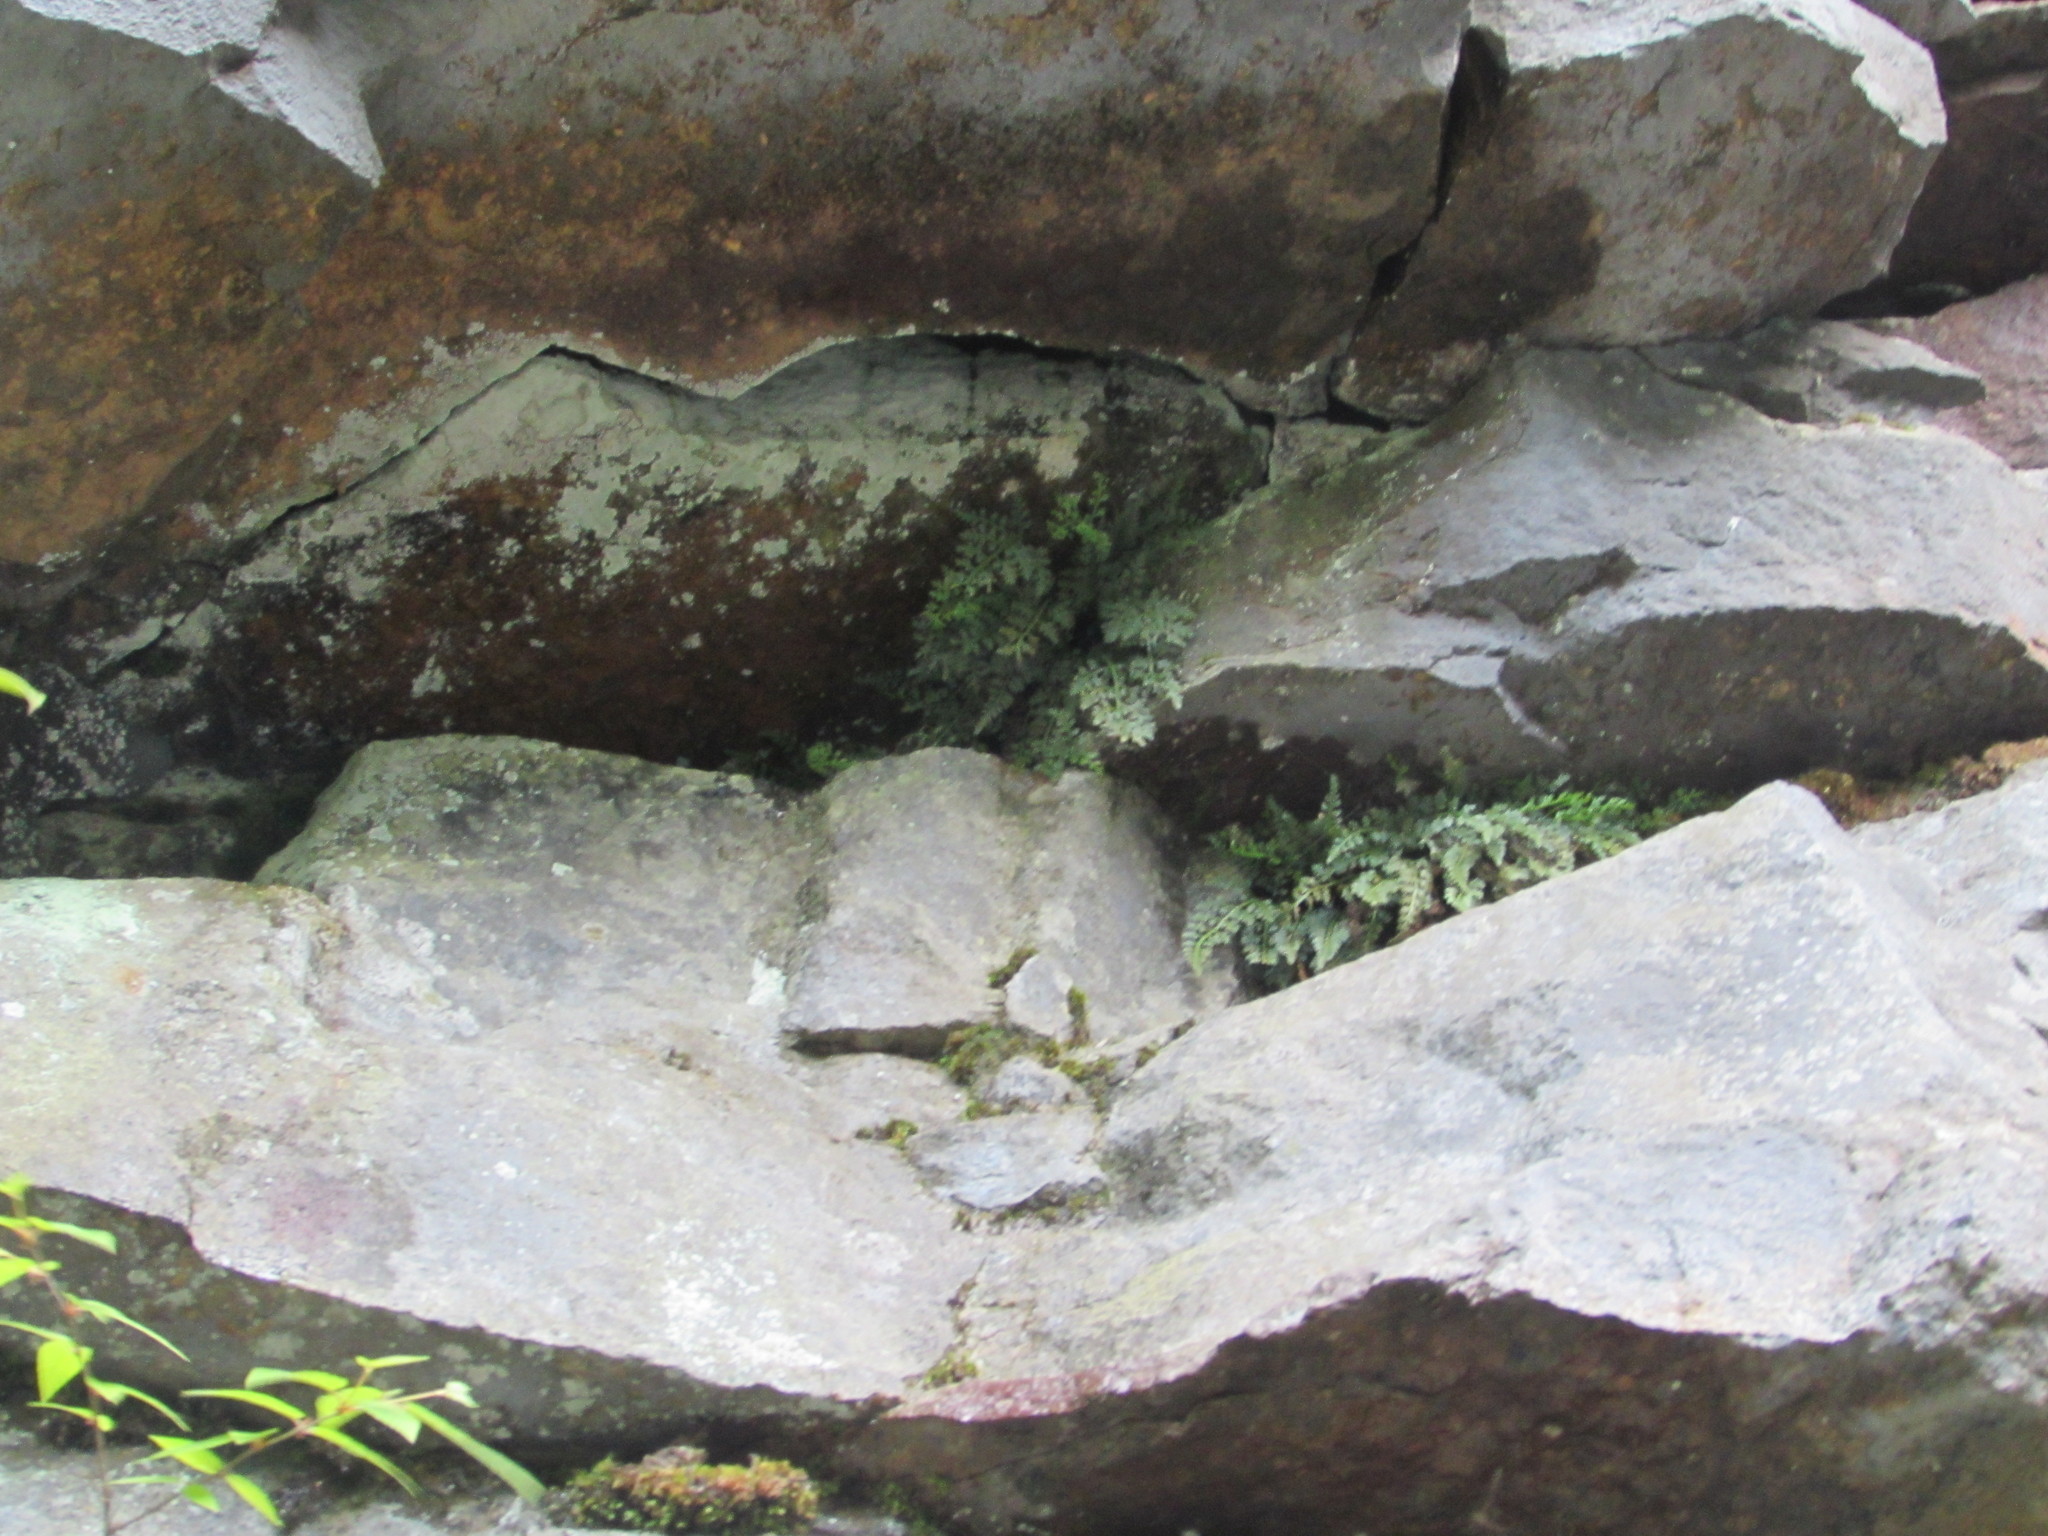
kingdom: Plantae
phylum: Tracheophyta
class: Polypodiopsida
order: Polypodiales
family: Aspleniaceae
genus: Asplenium
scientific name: Asplenium montanum
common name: Mountain spleenwort
